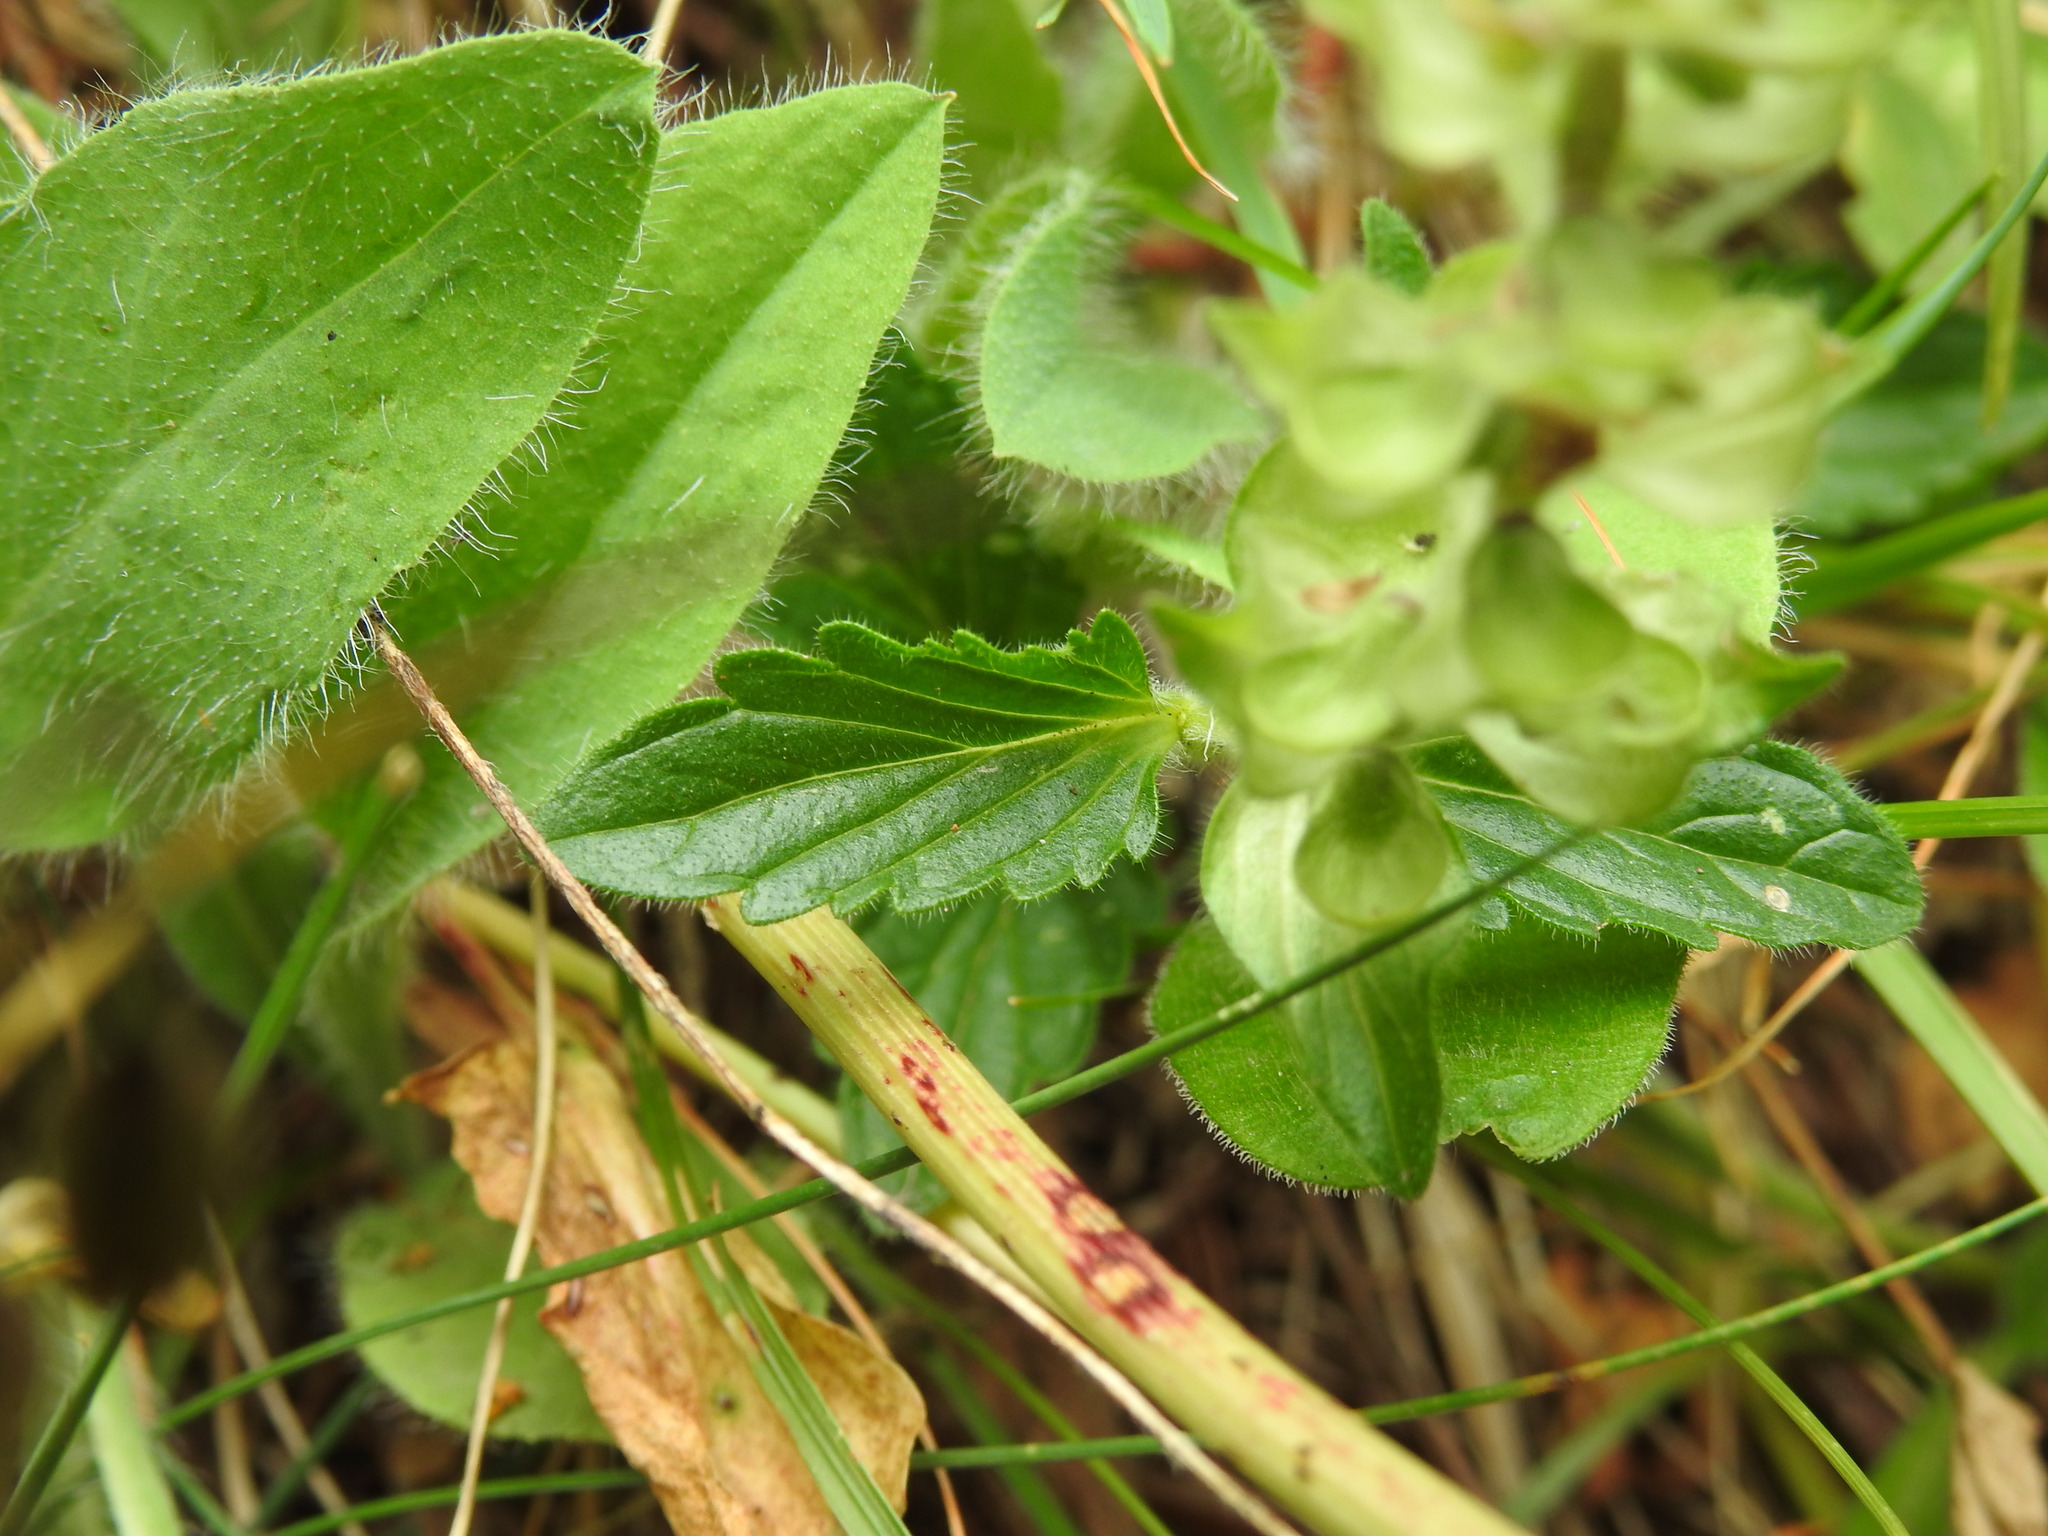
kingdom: Plantae
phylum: Tracheophyta
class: Magnoliopsida
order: Lamiales
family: Lamiaceae
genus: Scutellaria
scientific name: Scutellaria alpina
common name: Alpine scullcap
